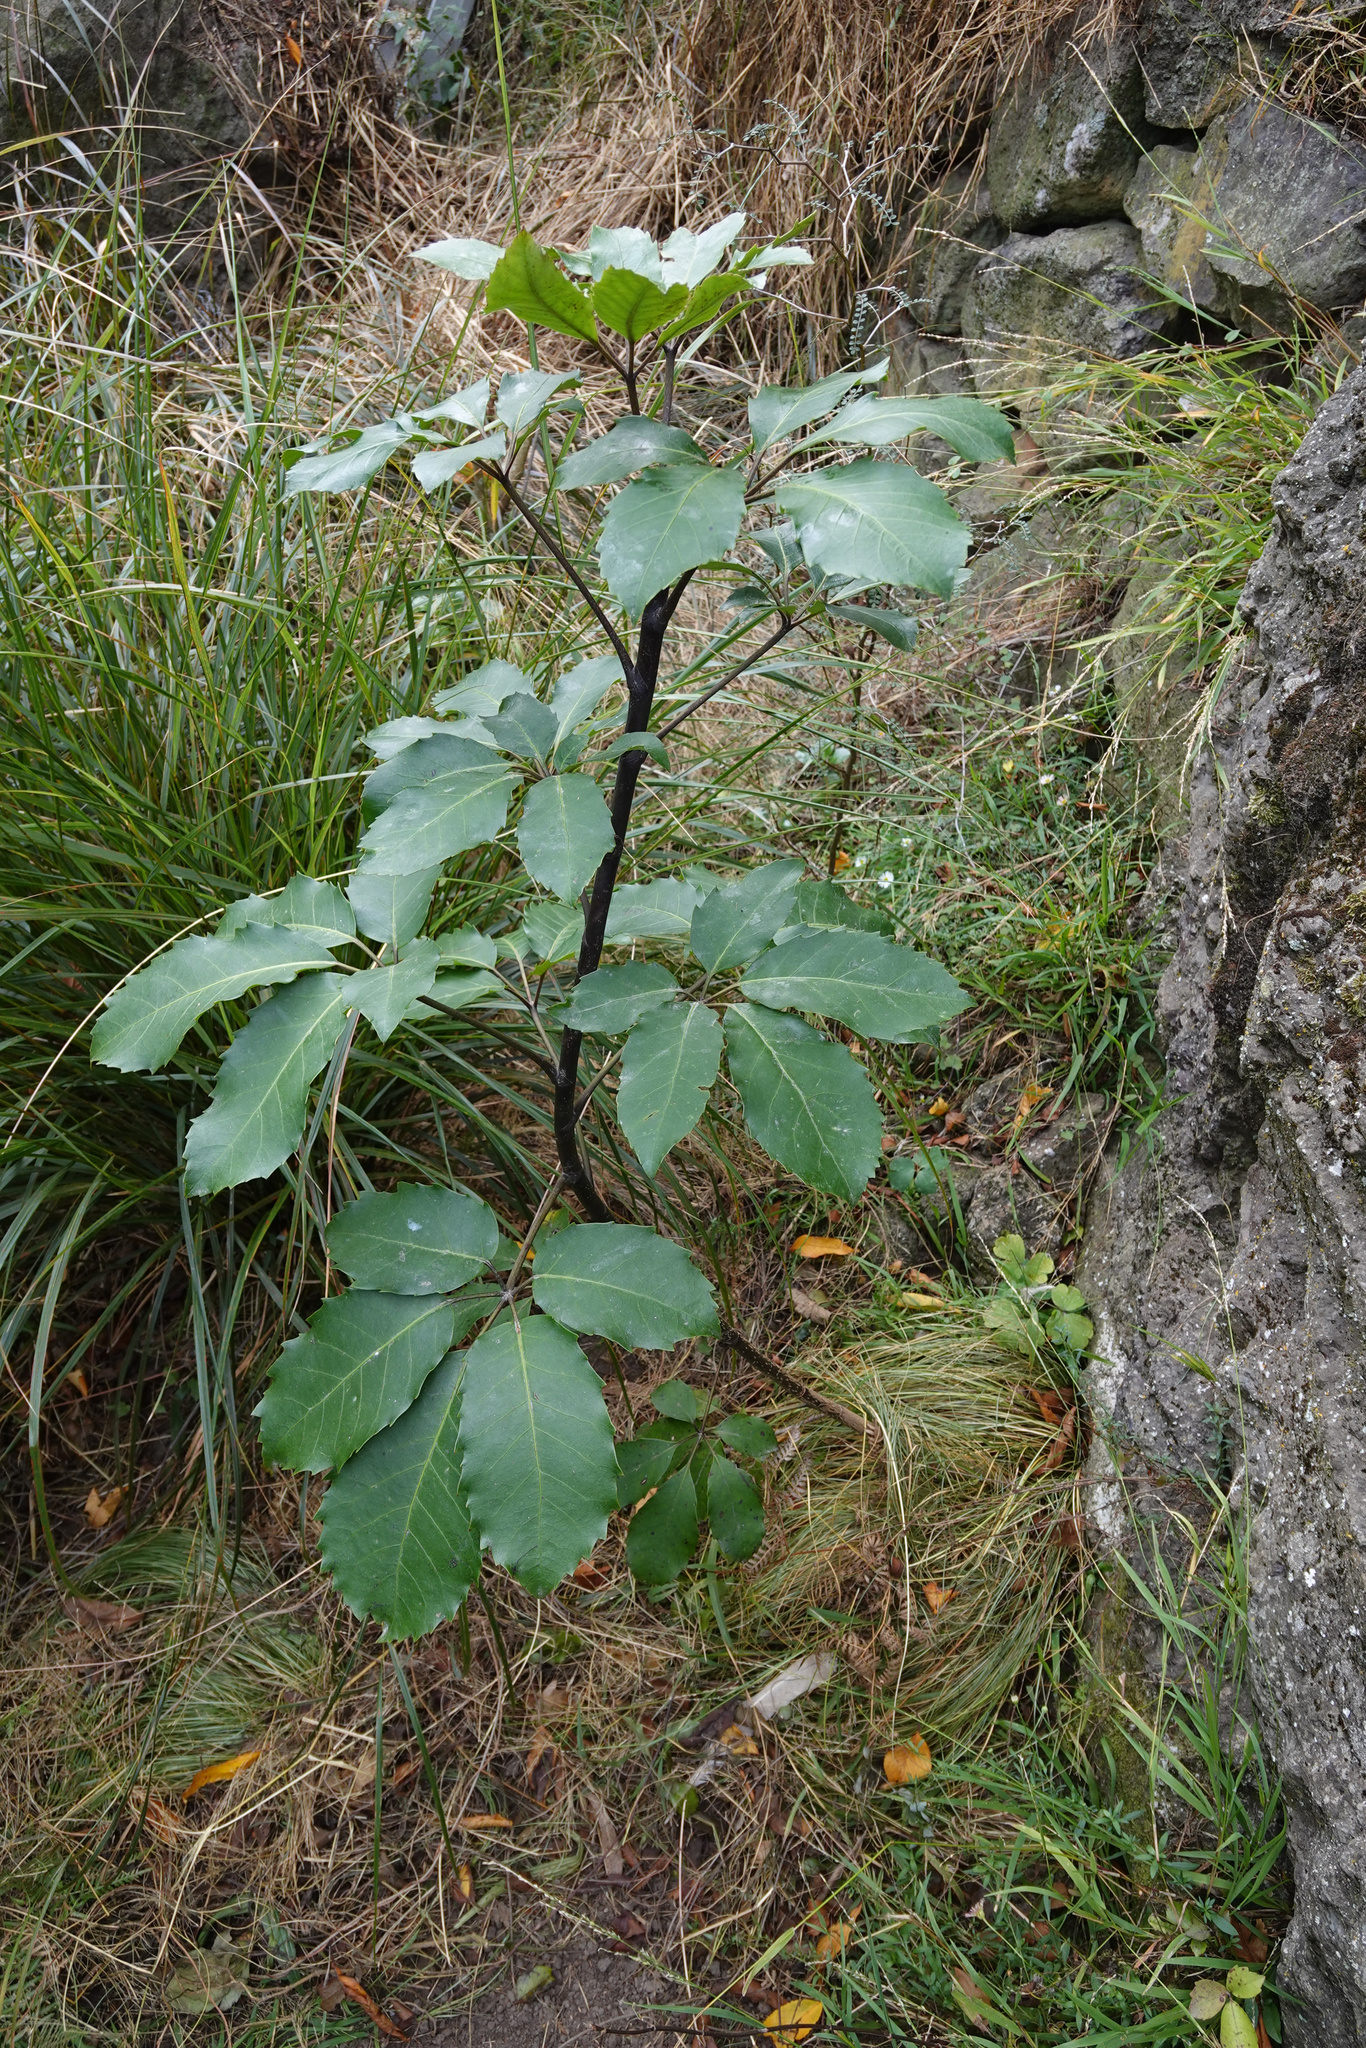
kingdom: Plantae
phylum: Tracheophyta
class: Magnoliopsida
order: Apiales
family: Araliaceae
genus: Neopanax
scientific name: Neopanax arboreus
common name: Five-fingers
